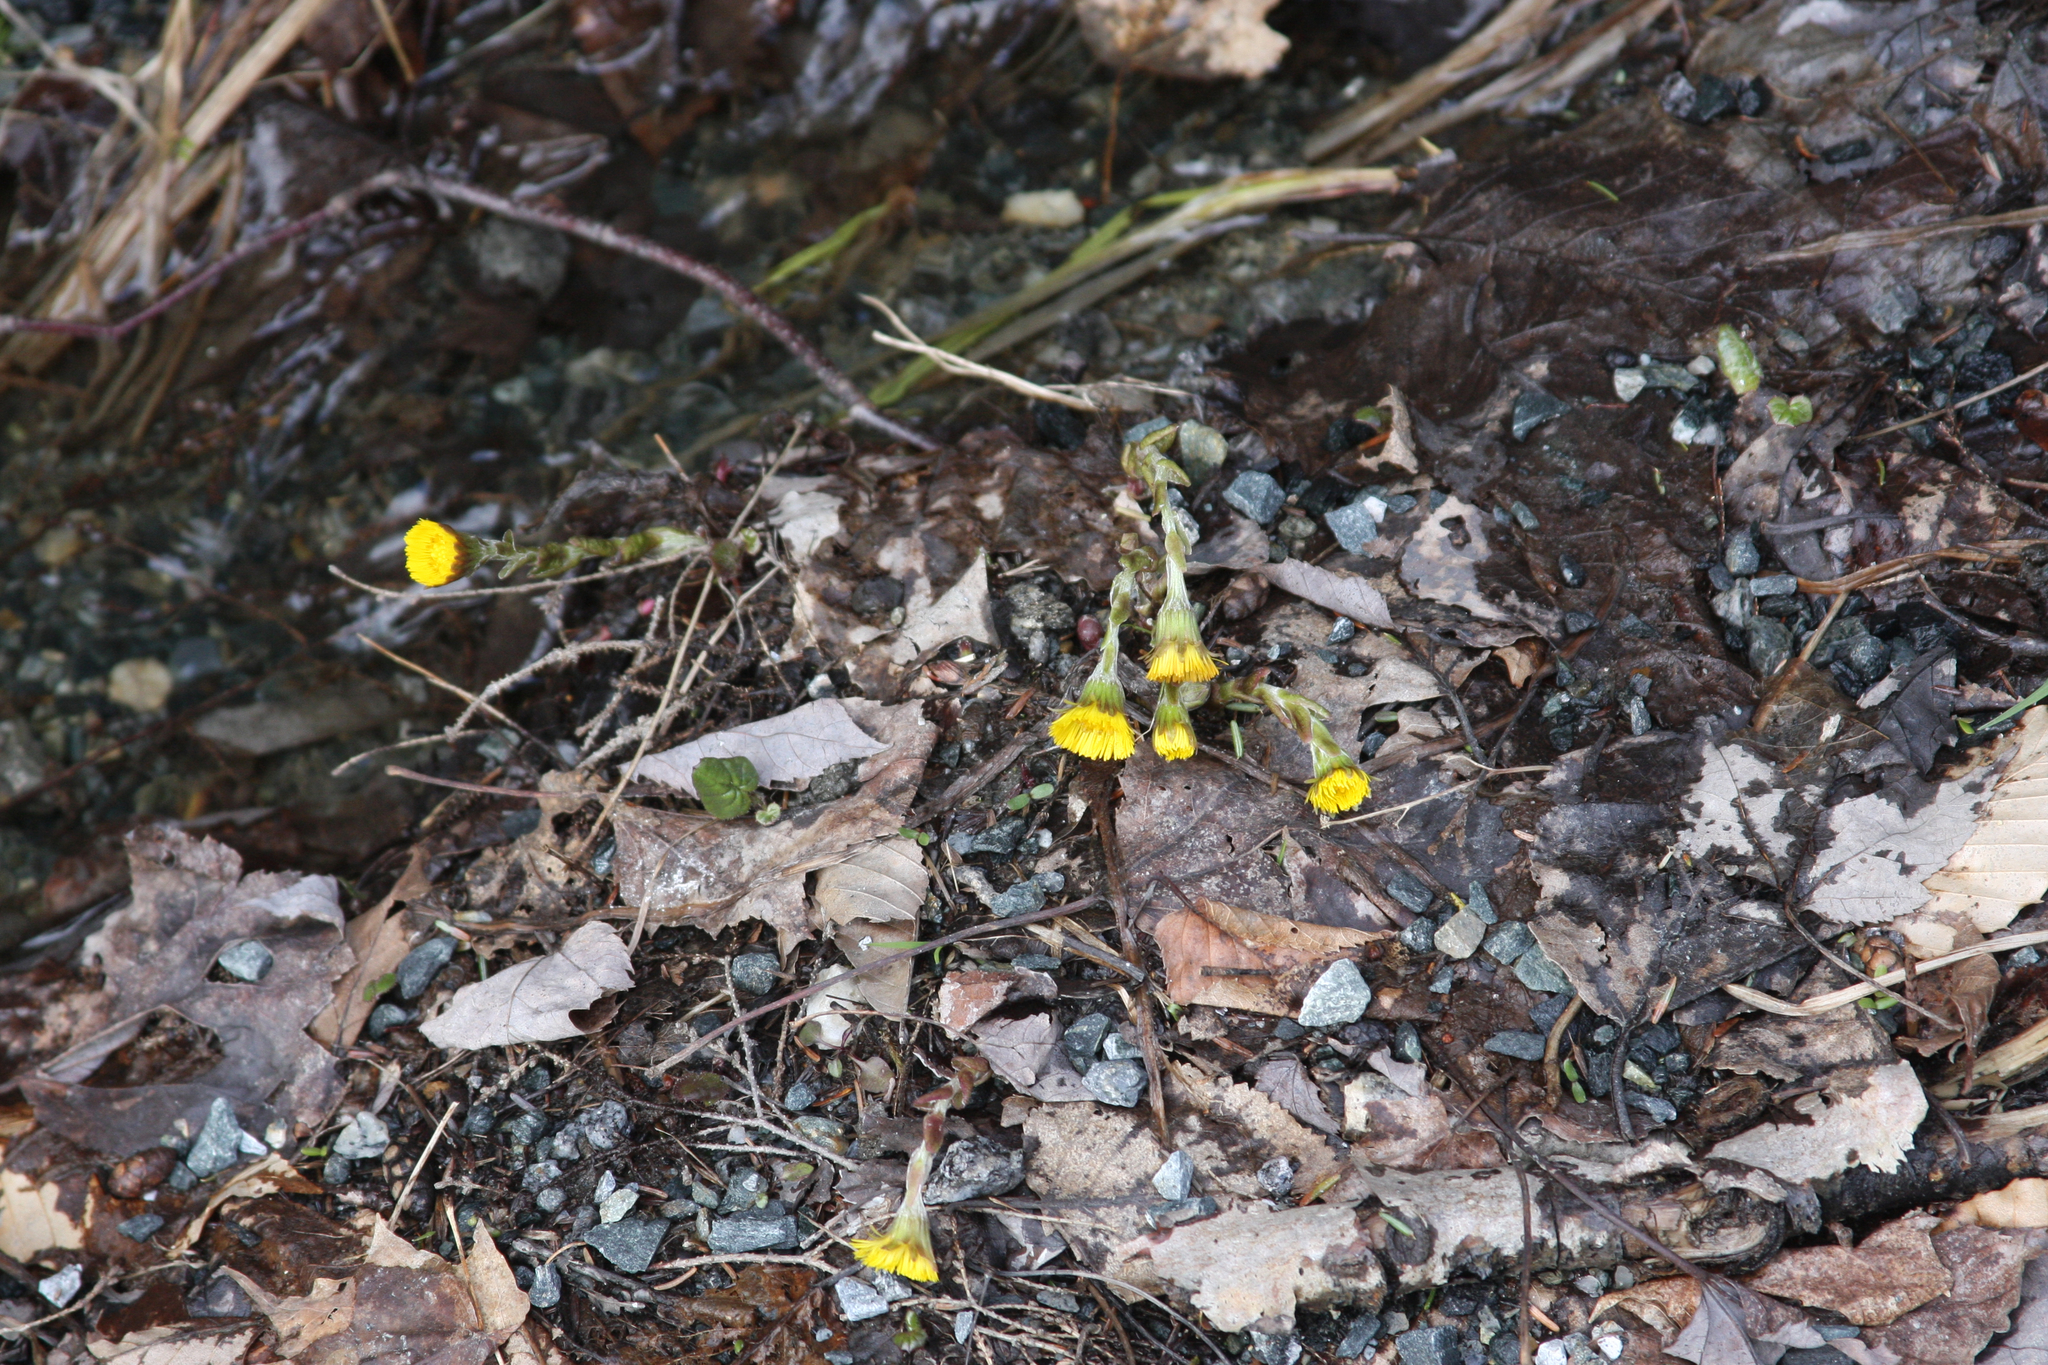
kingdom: Plantae
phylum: Tracheophyta
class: Magnoliopsida
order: Asterales
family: Asteraceae
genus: Tussilago
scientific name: Tussilago farfara
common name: Coltsfoot
